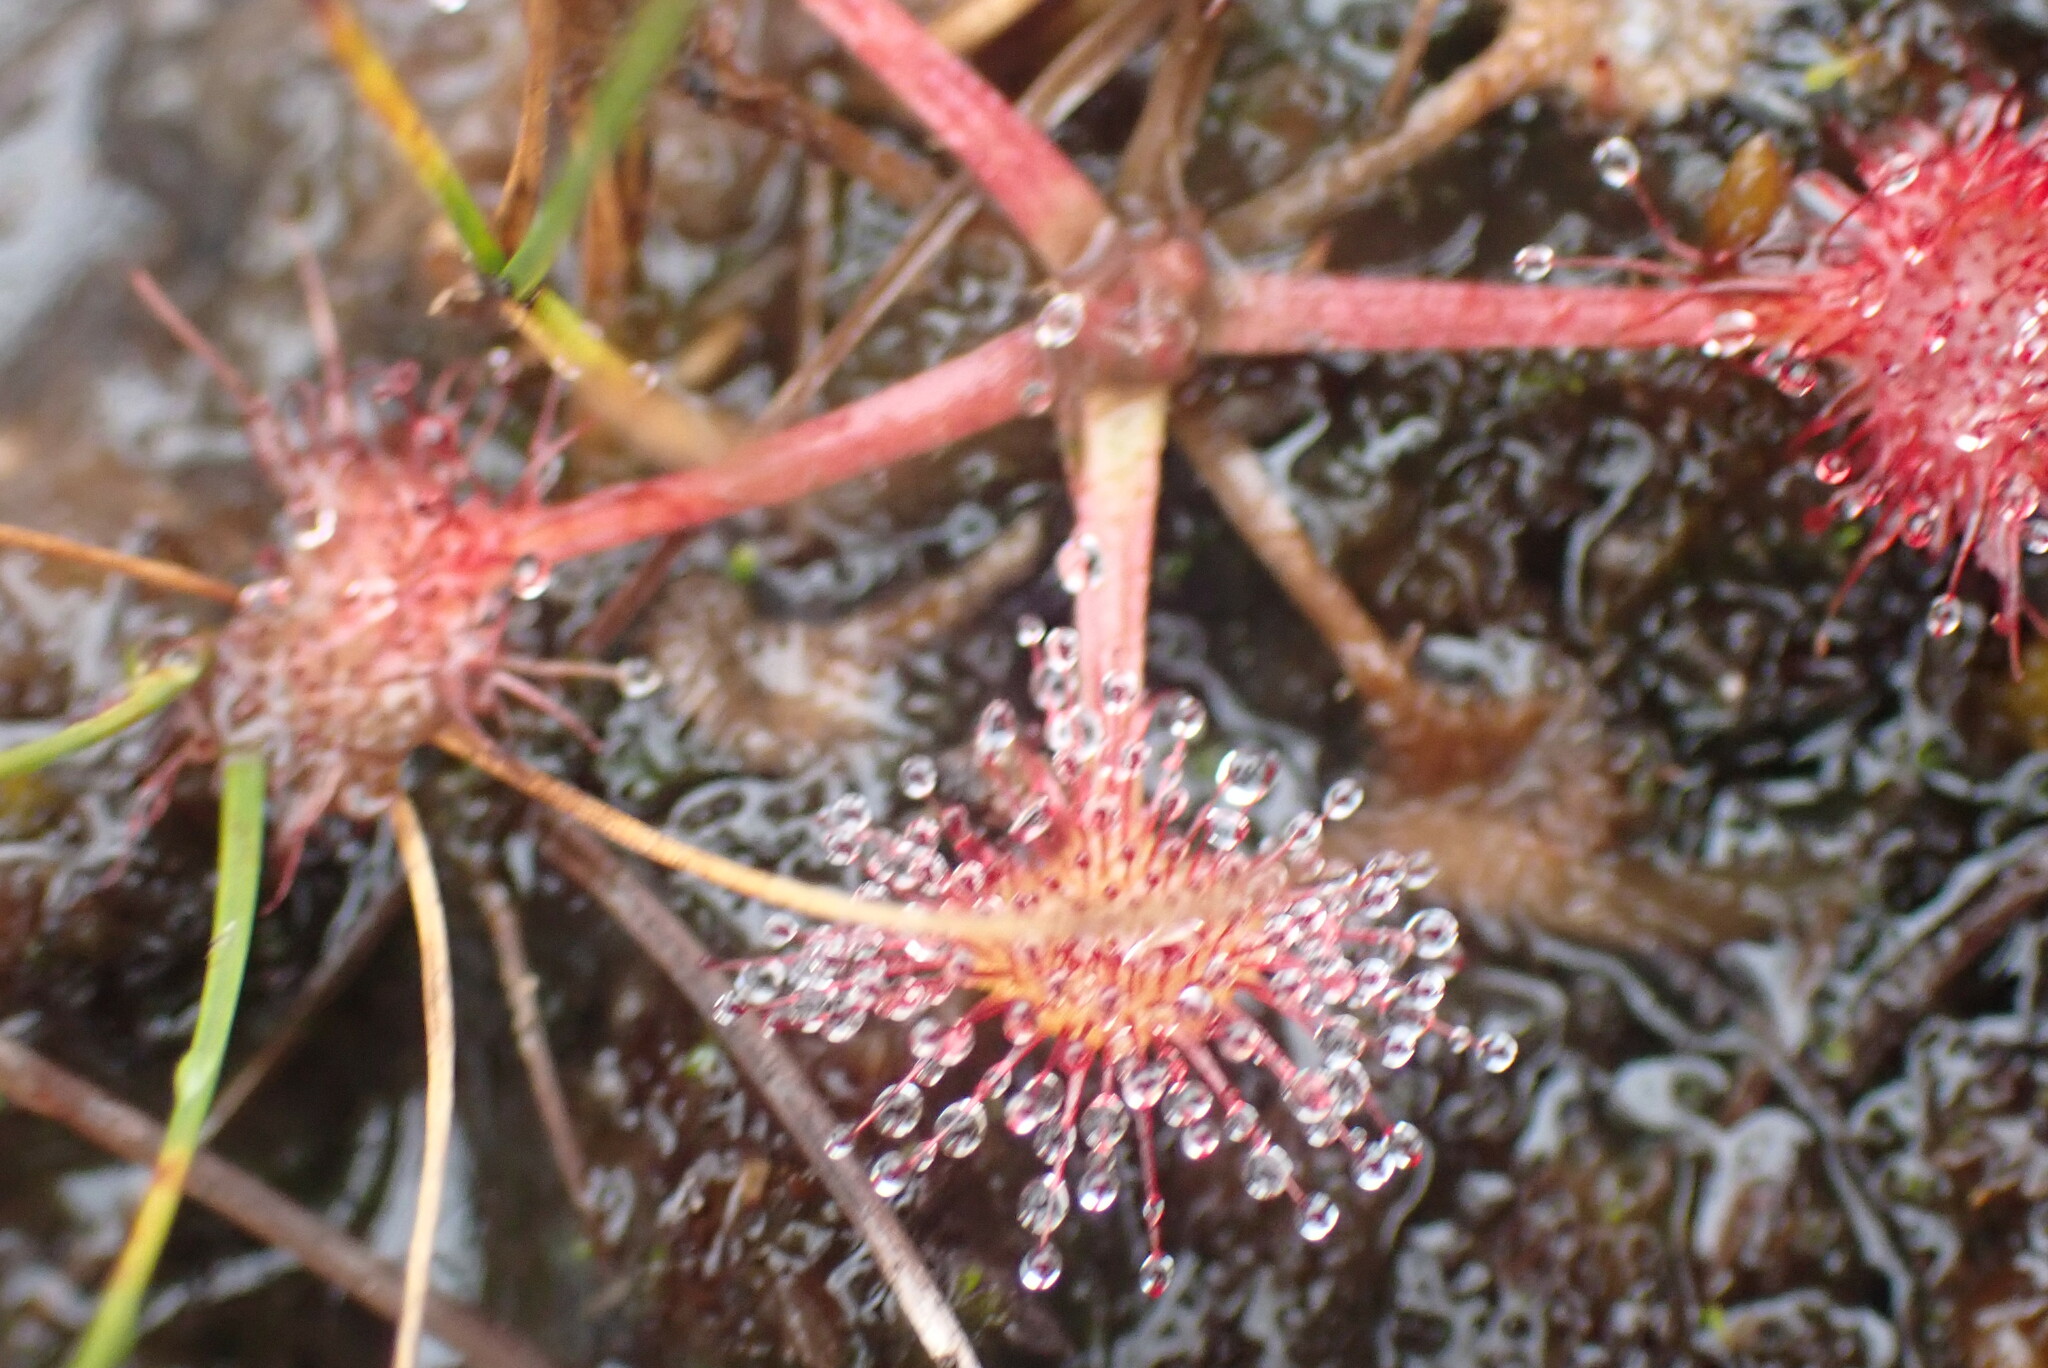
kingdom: Plantae
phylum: Tracheophyta
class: Magnoliopsida
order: Caryophyllales
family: Droseraceae
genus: Drosera
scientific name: Drosera rotundifolia
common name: Round-leaved sundew
